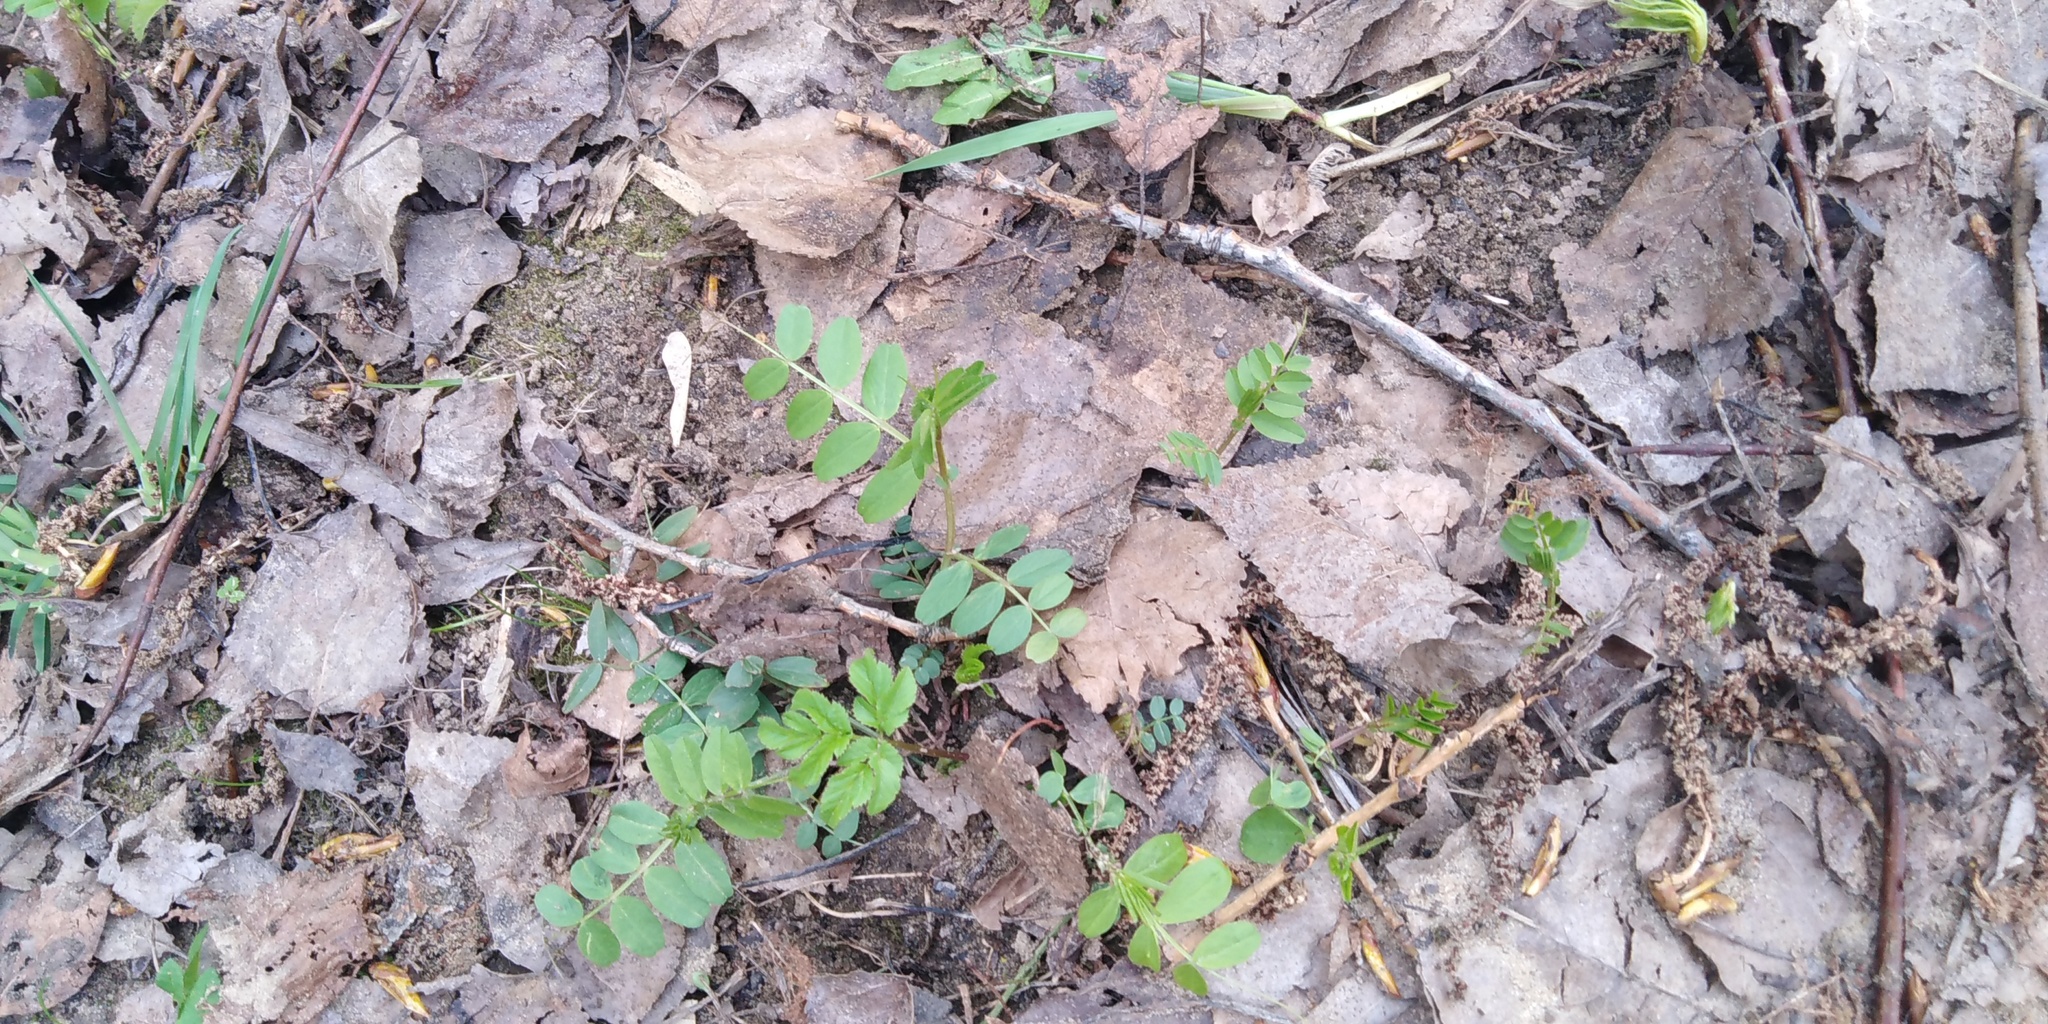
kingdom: Plantae
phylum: Tracheophyta
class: Magnoliopsida
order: Fabales
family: Fabaceae
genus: Vicia
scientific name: Vicia sepium
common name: Bush vetch
